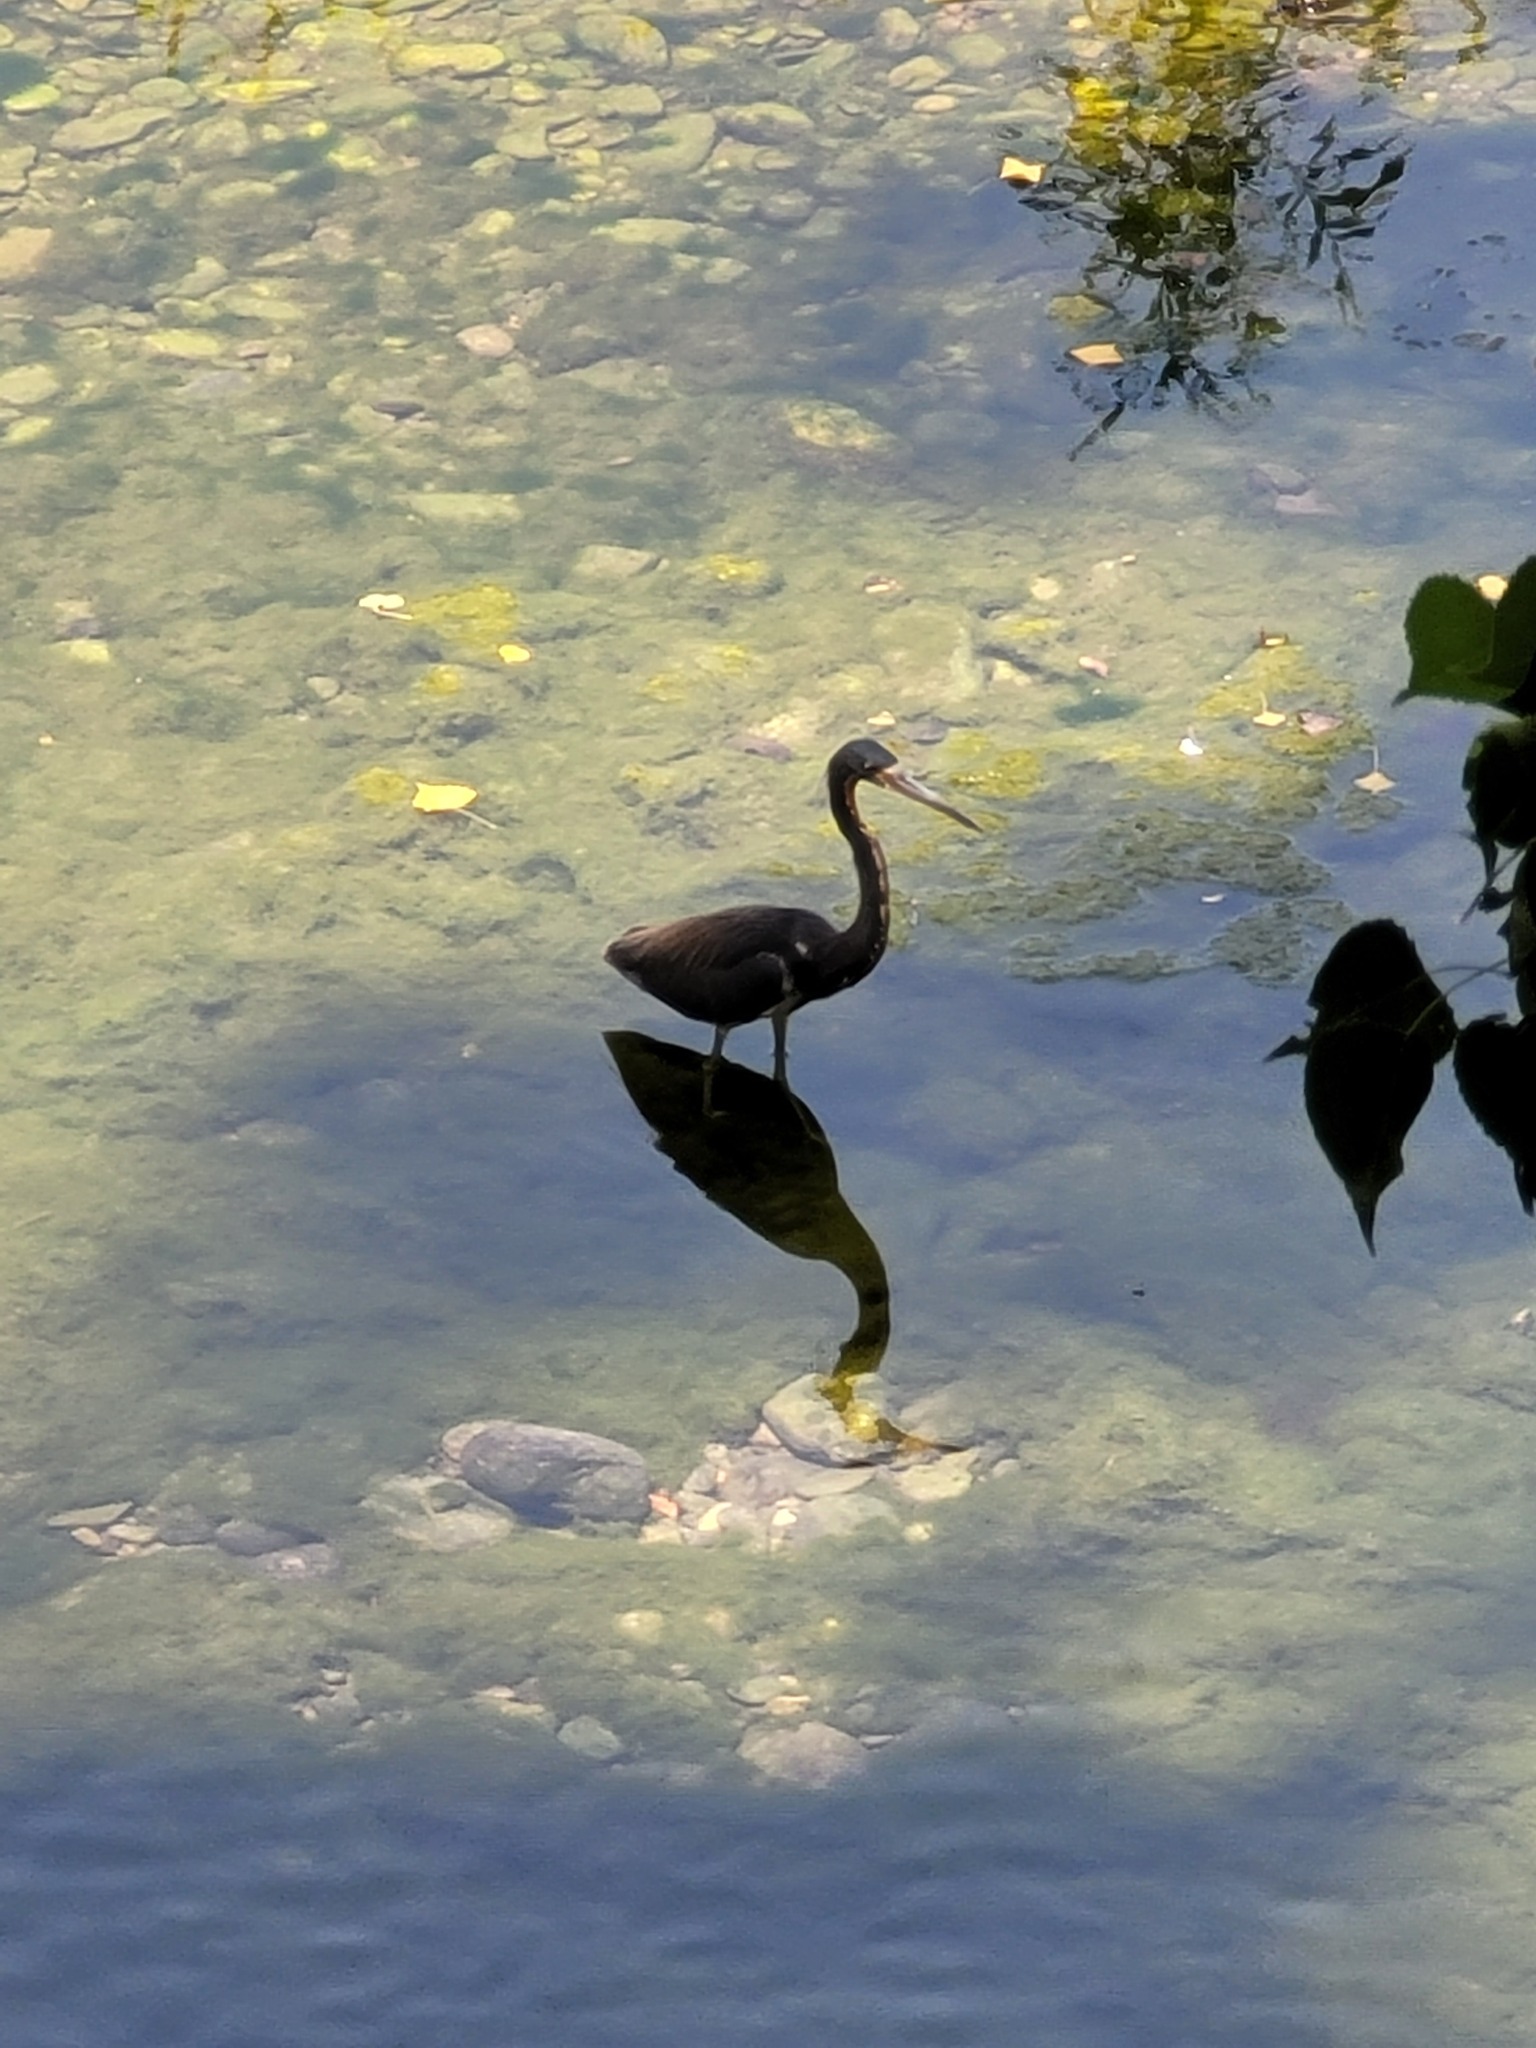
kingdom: Animalia
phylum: Chordata
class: Aves
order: Pelecaniformes
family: Ardeidae
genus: Egretta
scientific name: Egretta tricolor
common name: Tricolored heron
